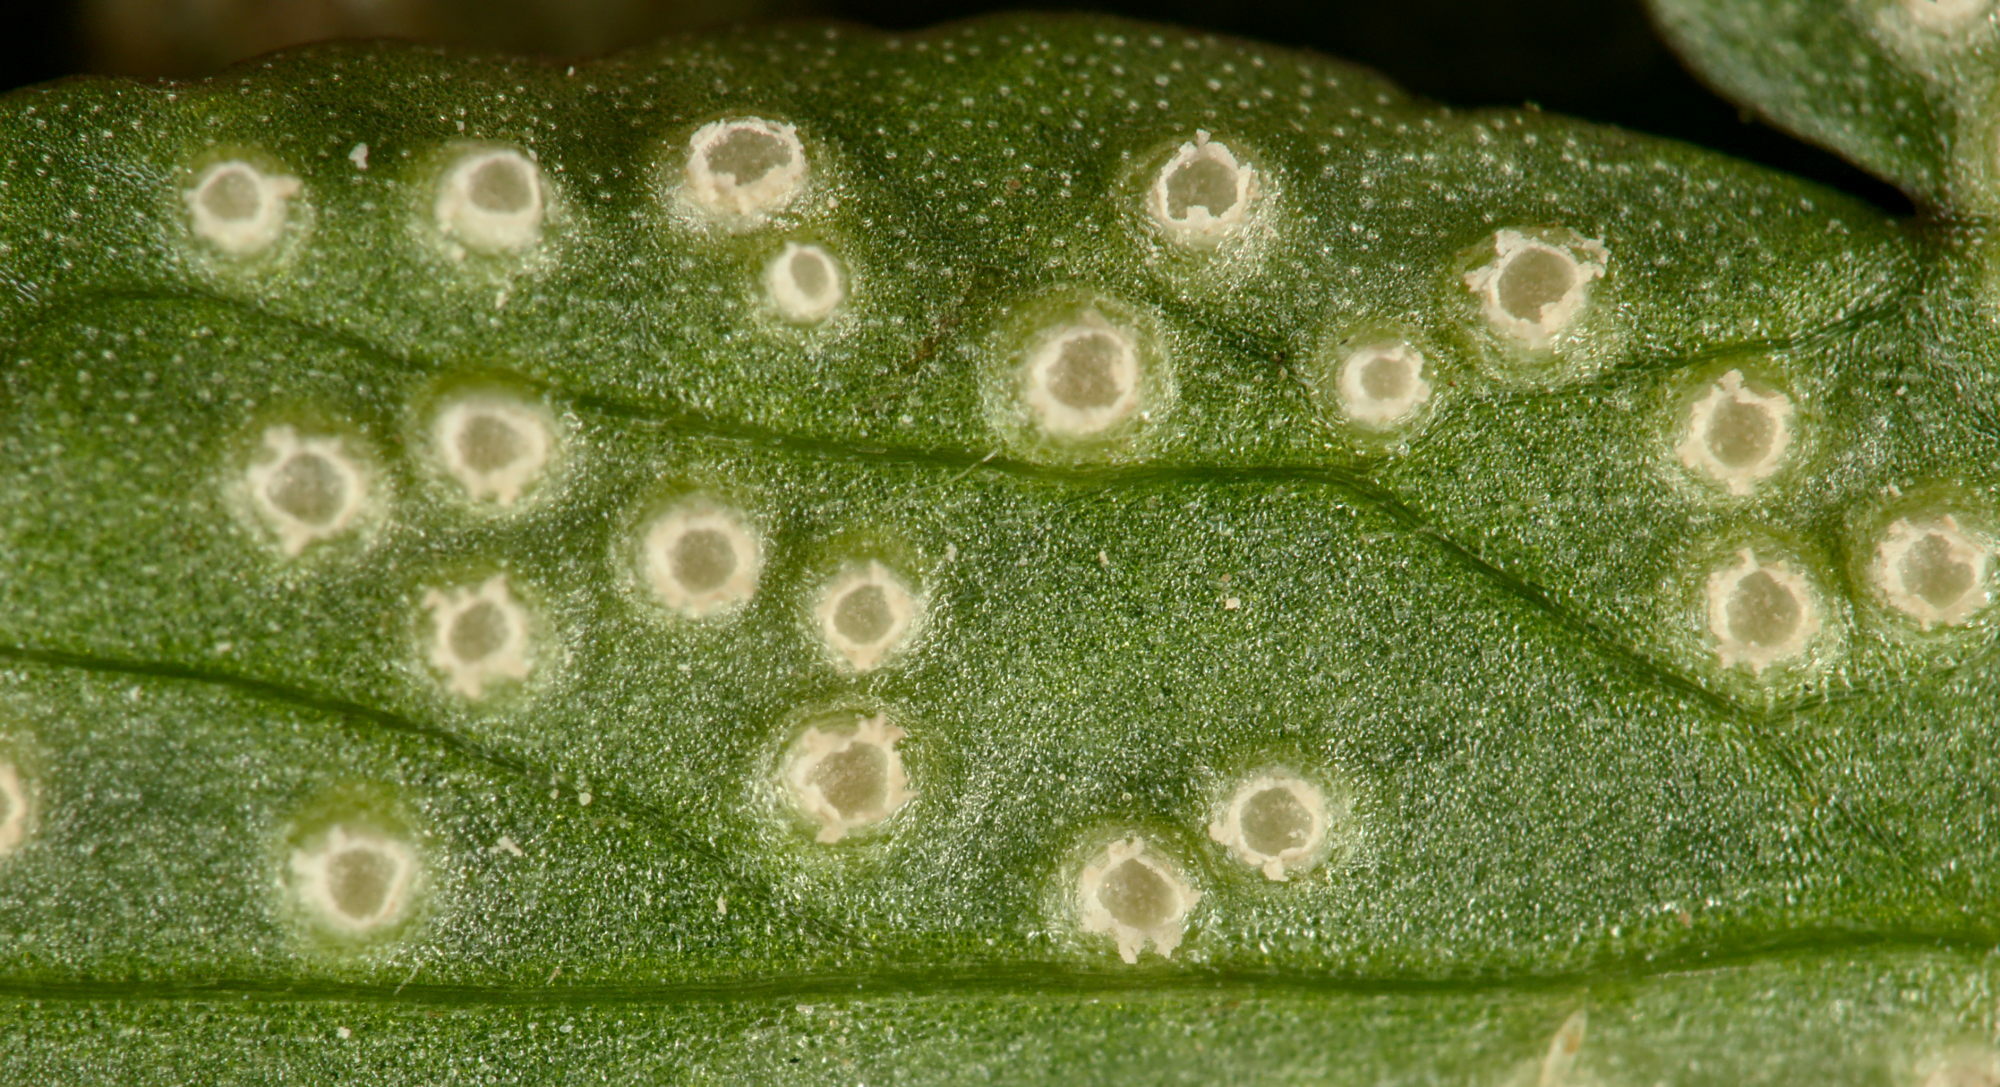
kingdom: Fungi
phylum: Basidiomycota
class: Pucciniomycetes
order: Pucciniales
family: Ochropsoraceae
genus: Ochropsora
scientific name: Ochropsora ariae
